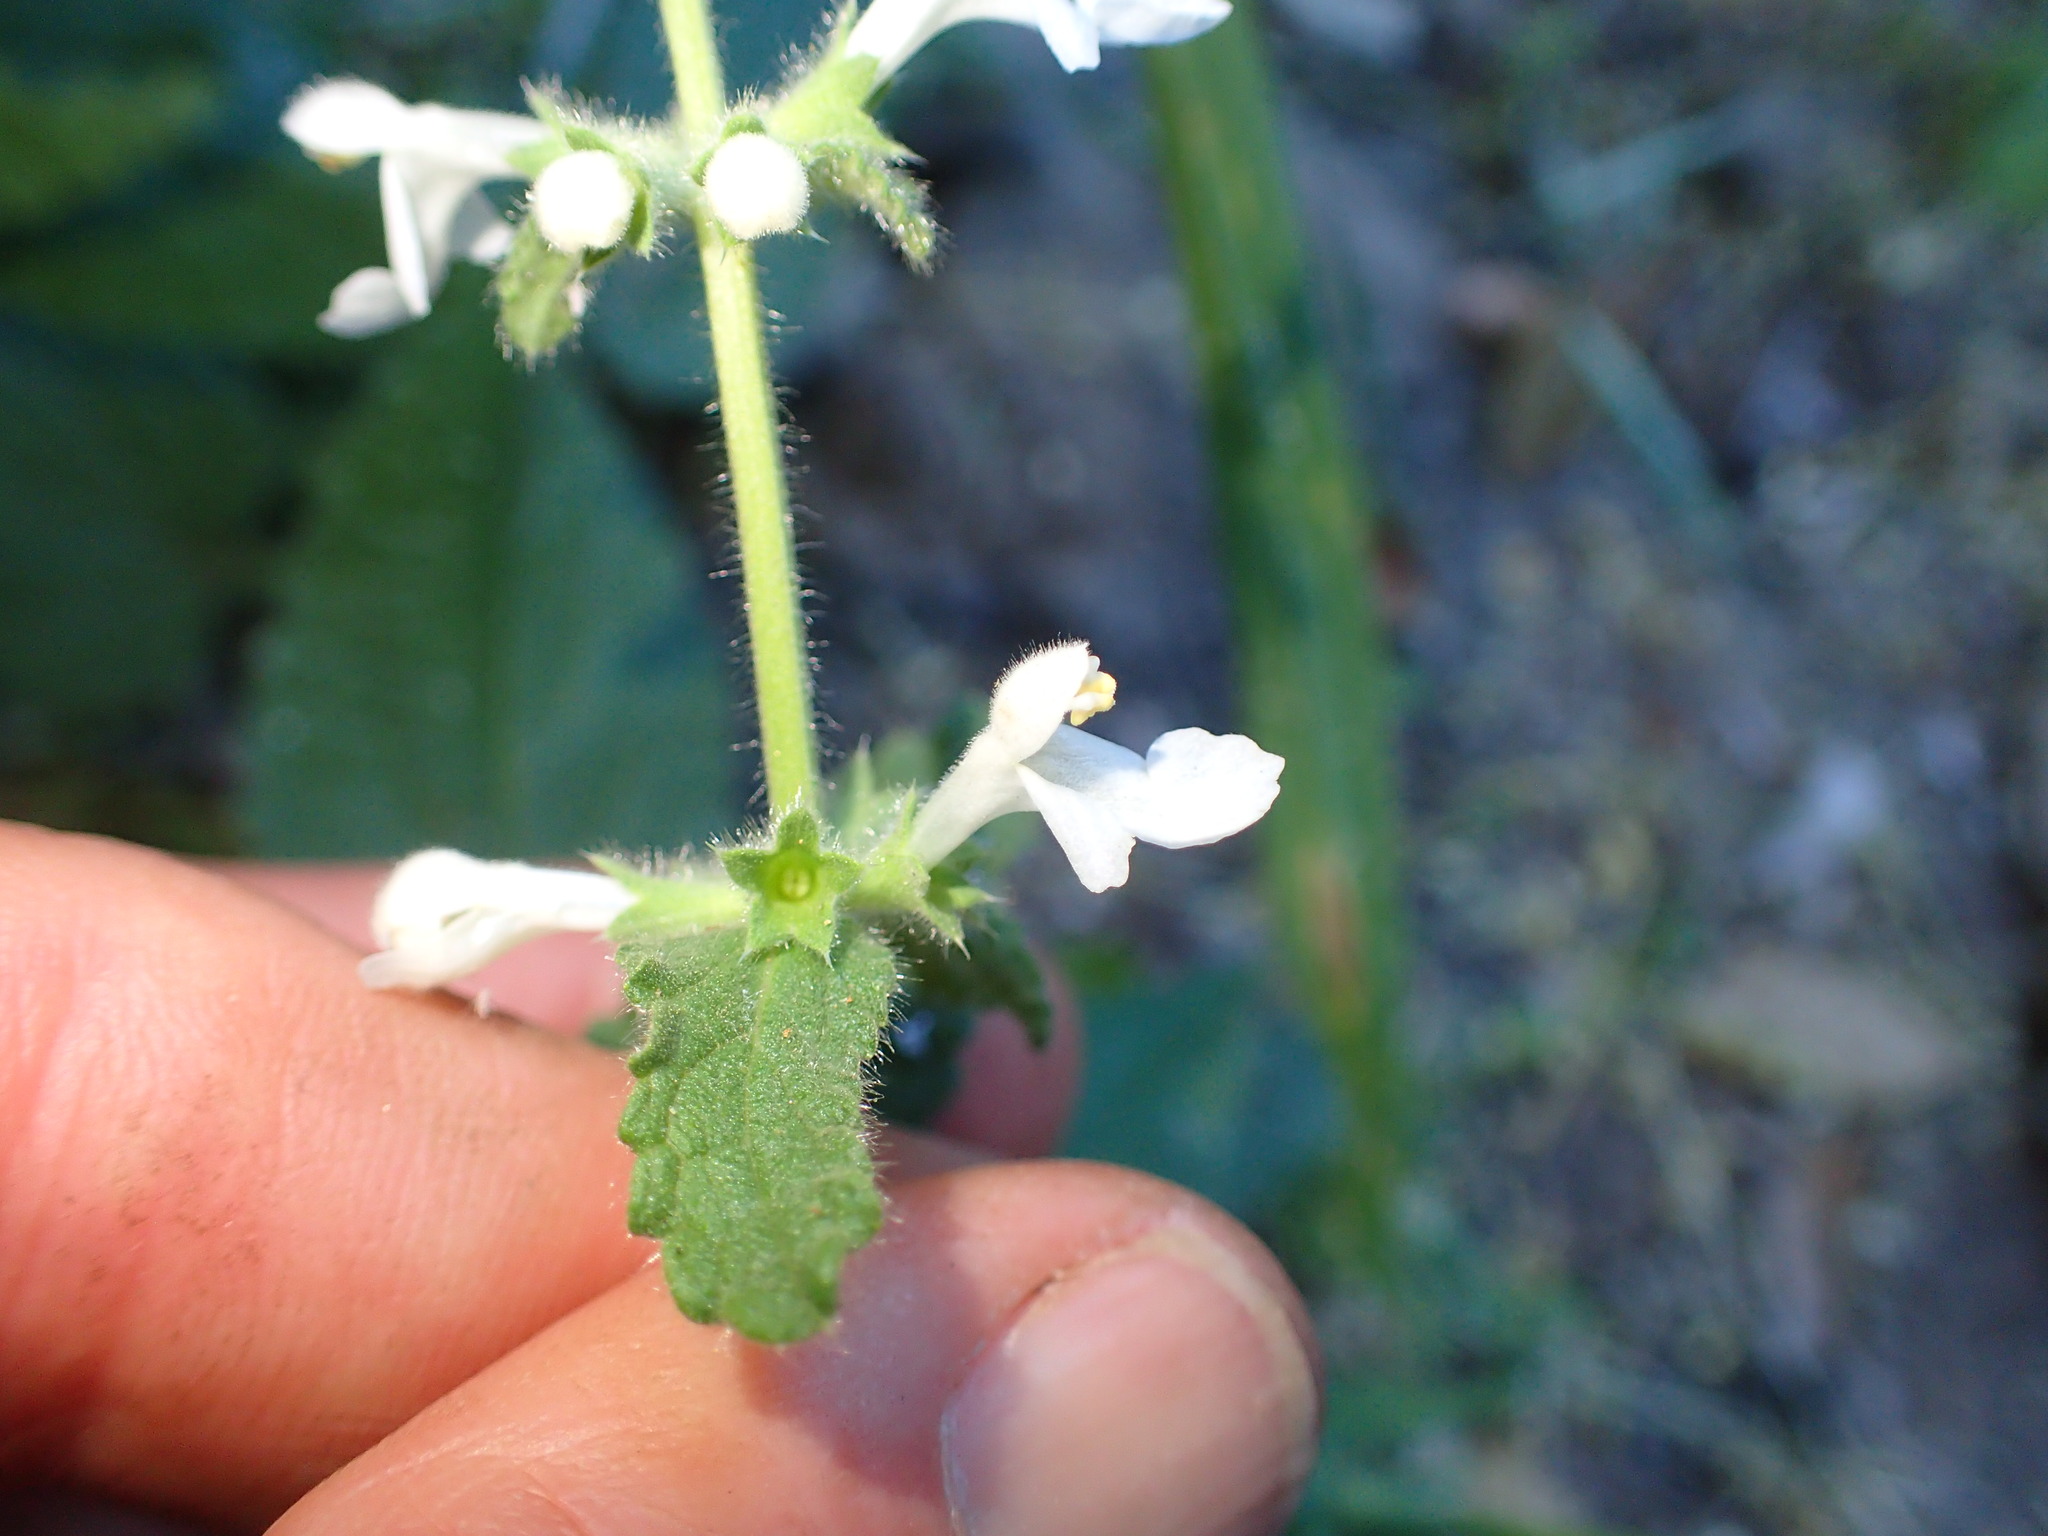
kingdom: Plantae
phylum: Tracheophyta
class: Magnoliopsida
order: Lamiales
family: Lamiaceae
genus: Stachys
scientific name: Stachys bullata
